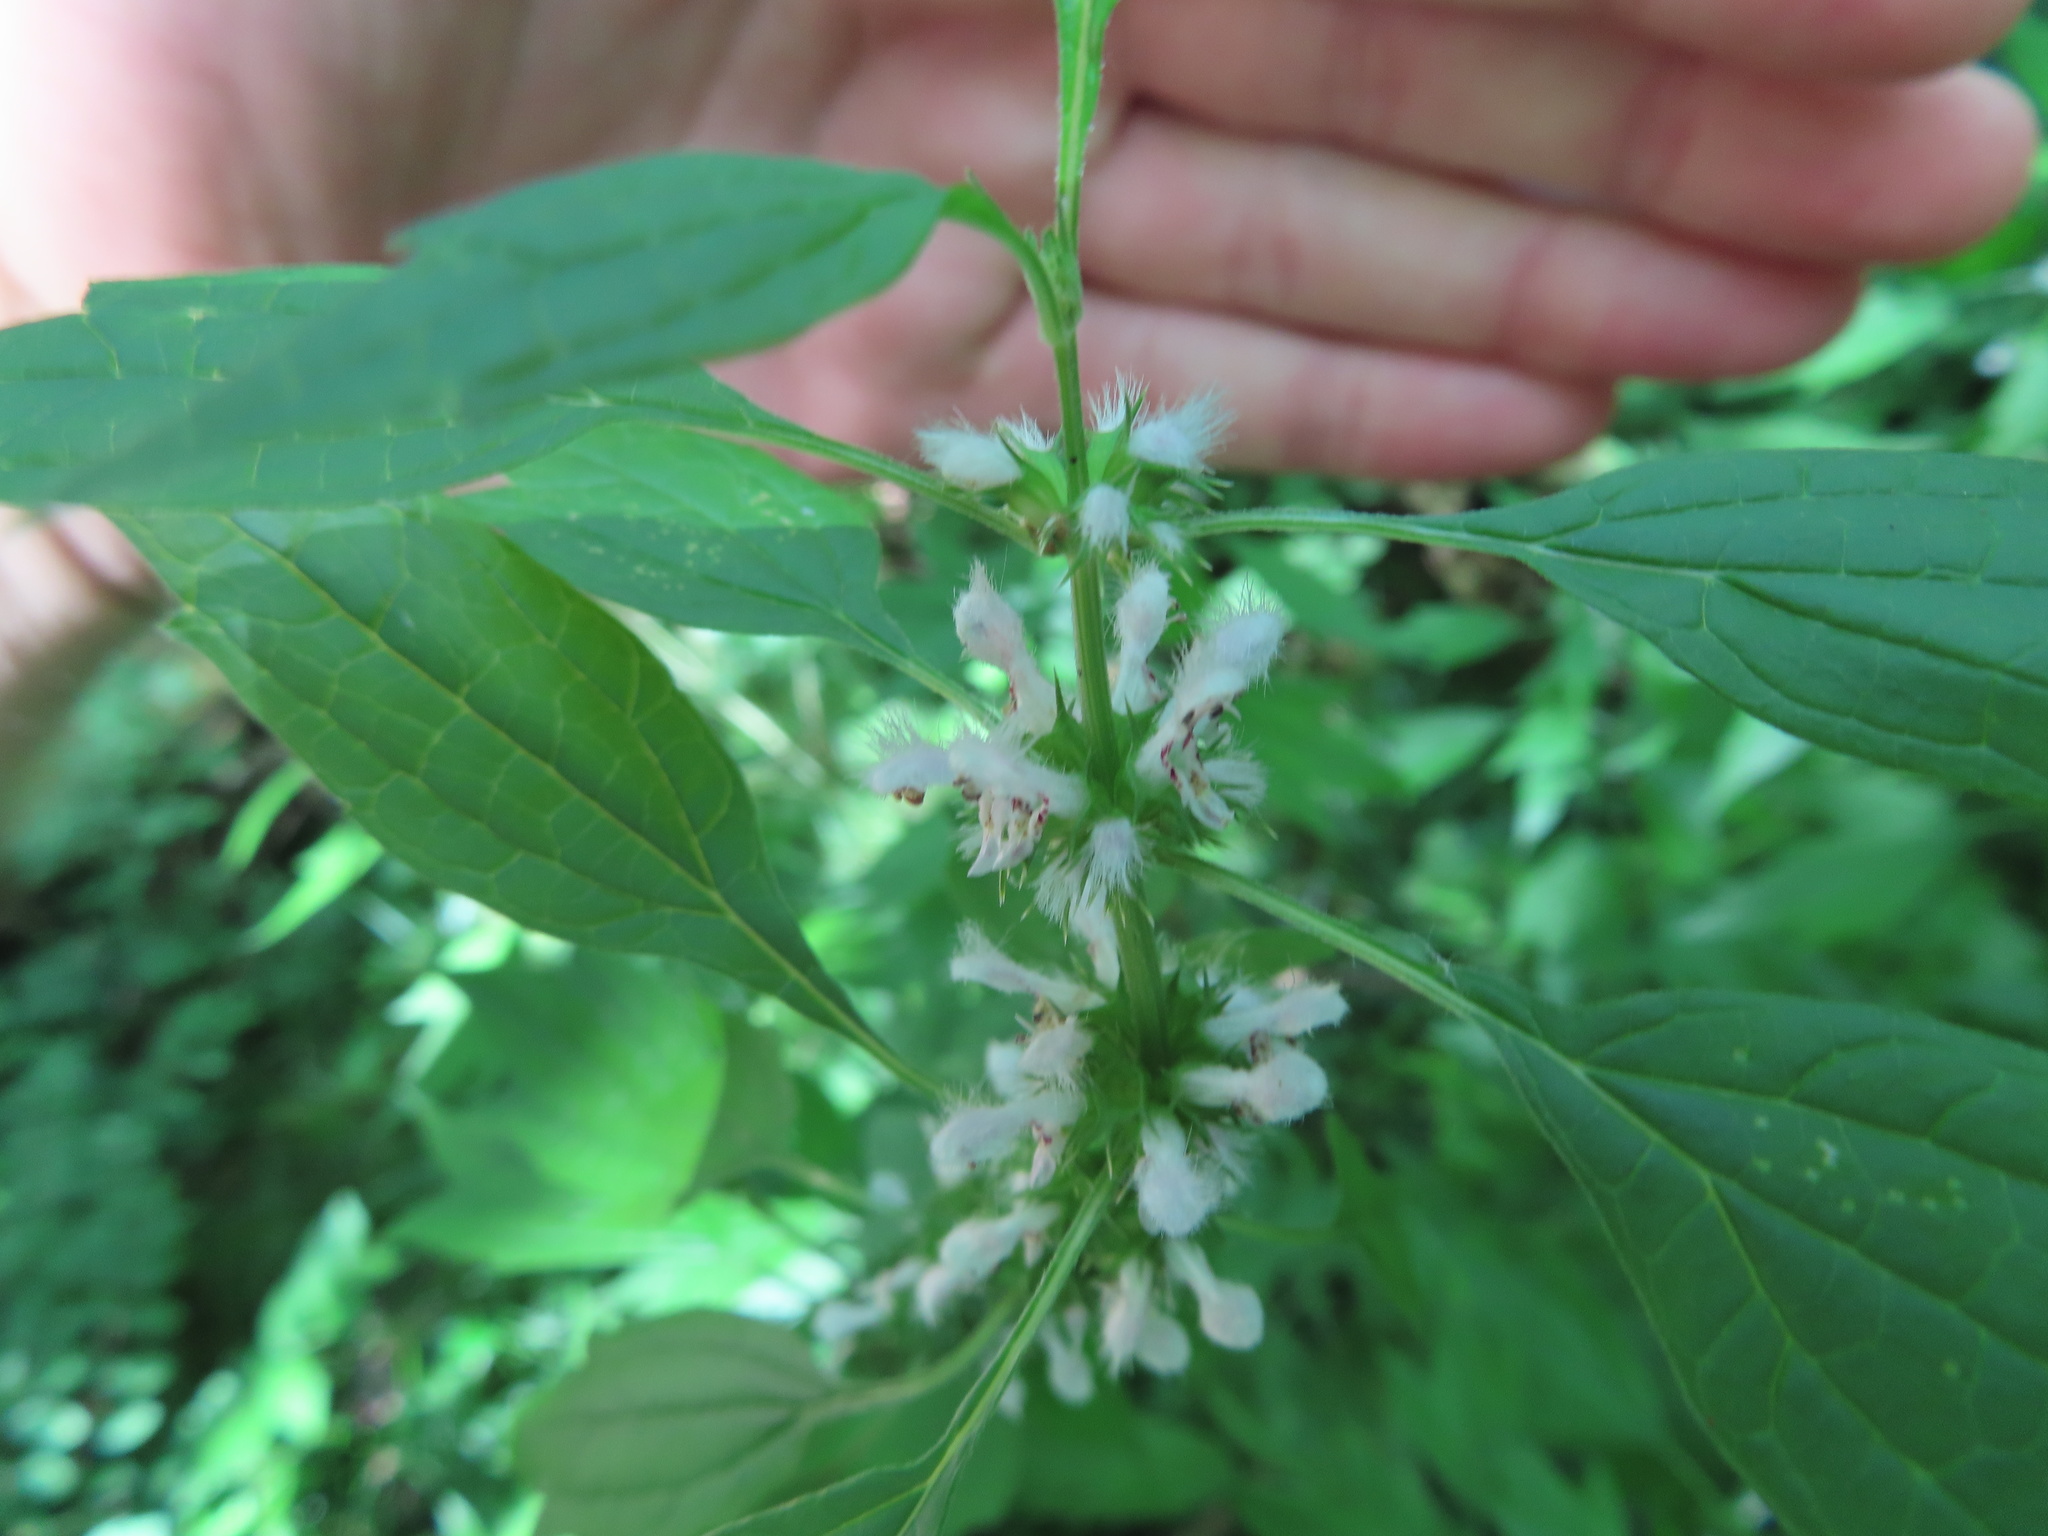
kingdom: Plantae
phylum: Tracheophyta
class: Magnoliopsida
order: Lamiales
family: Lamiaceae
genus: Leonurus
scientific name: Leonurus cardiaca
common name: Motherwort
